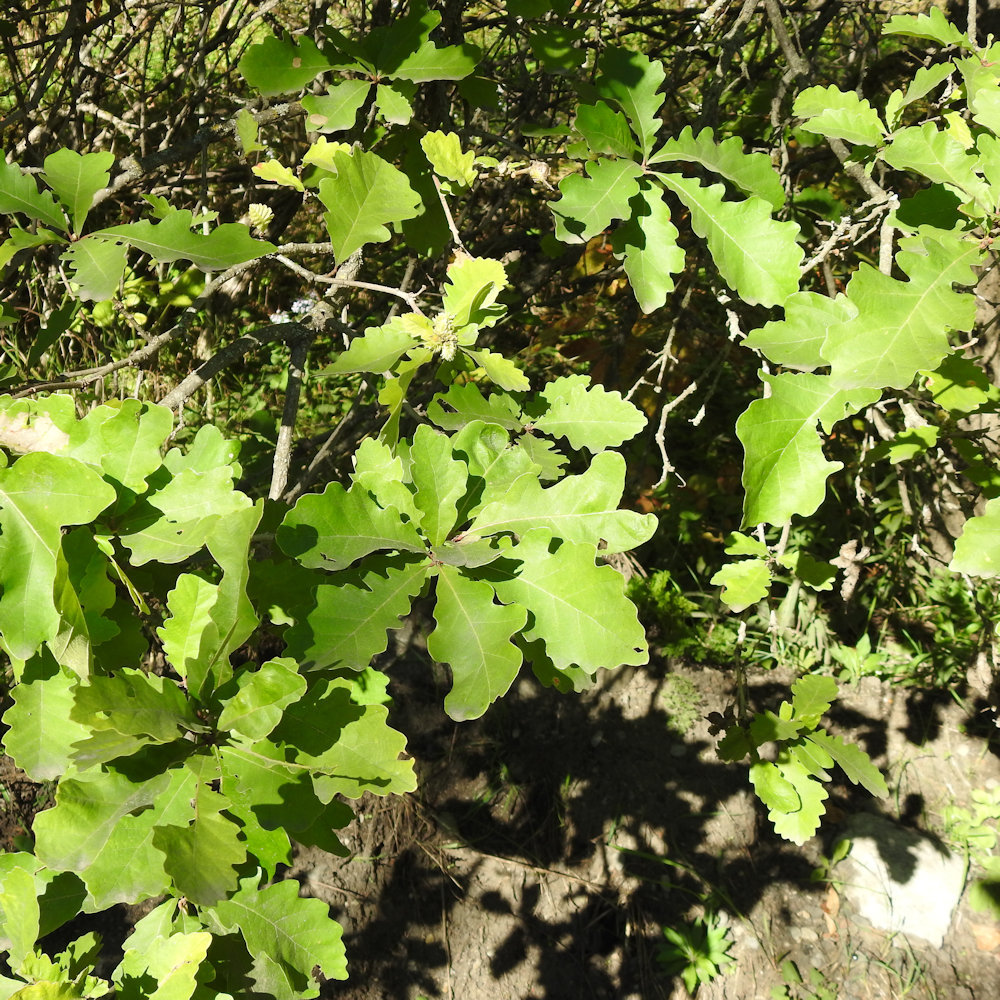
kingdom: Animalia
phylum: Arthropoda
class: Insecta
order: Hymenoptera
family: Cynipidae
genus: Andricus
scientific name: Andricus
